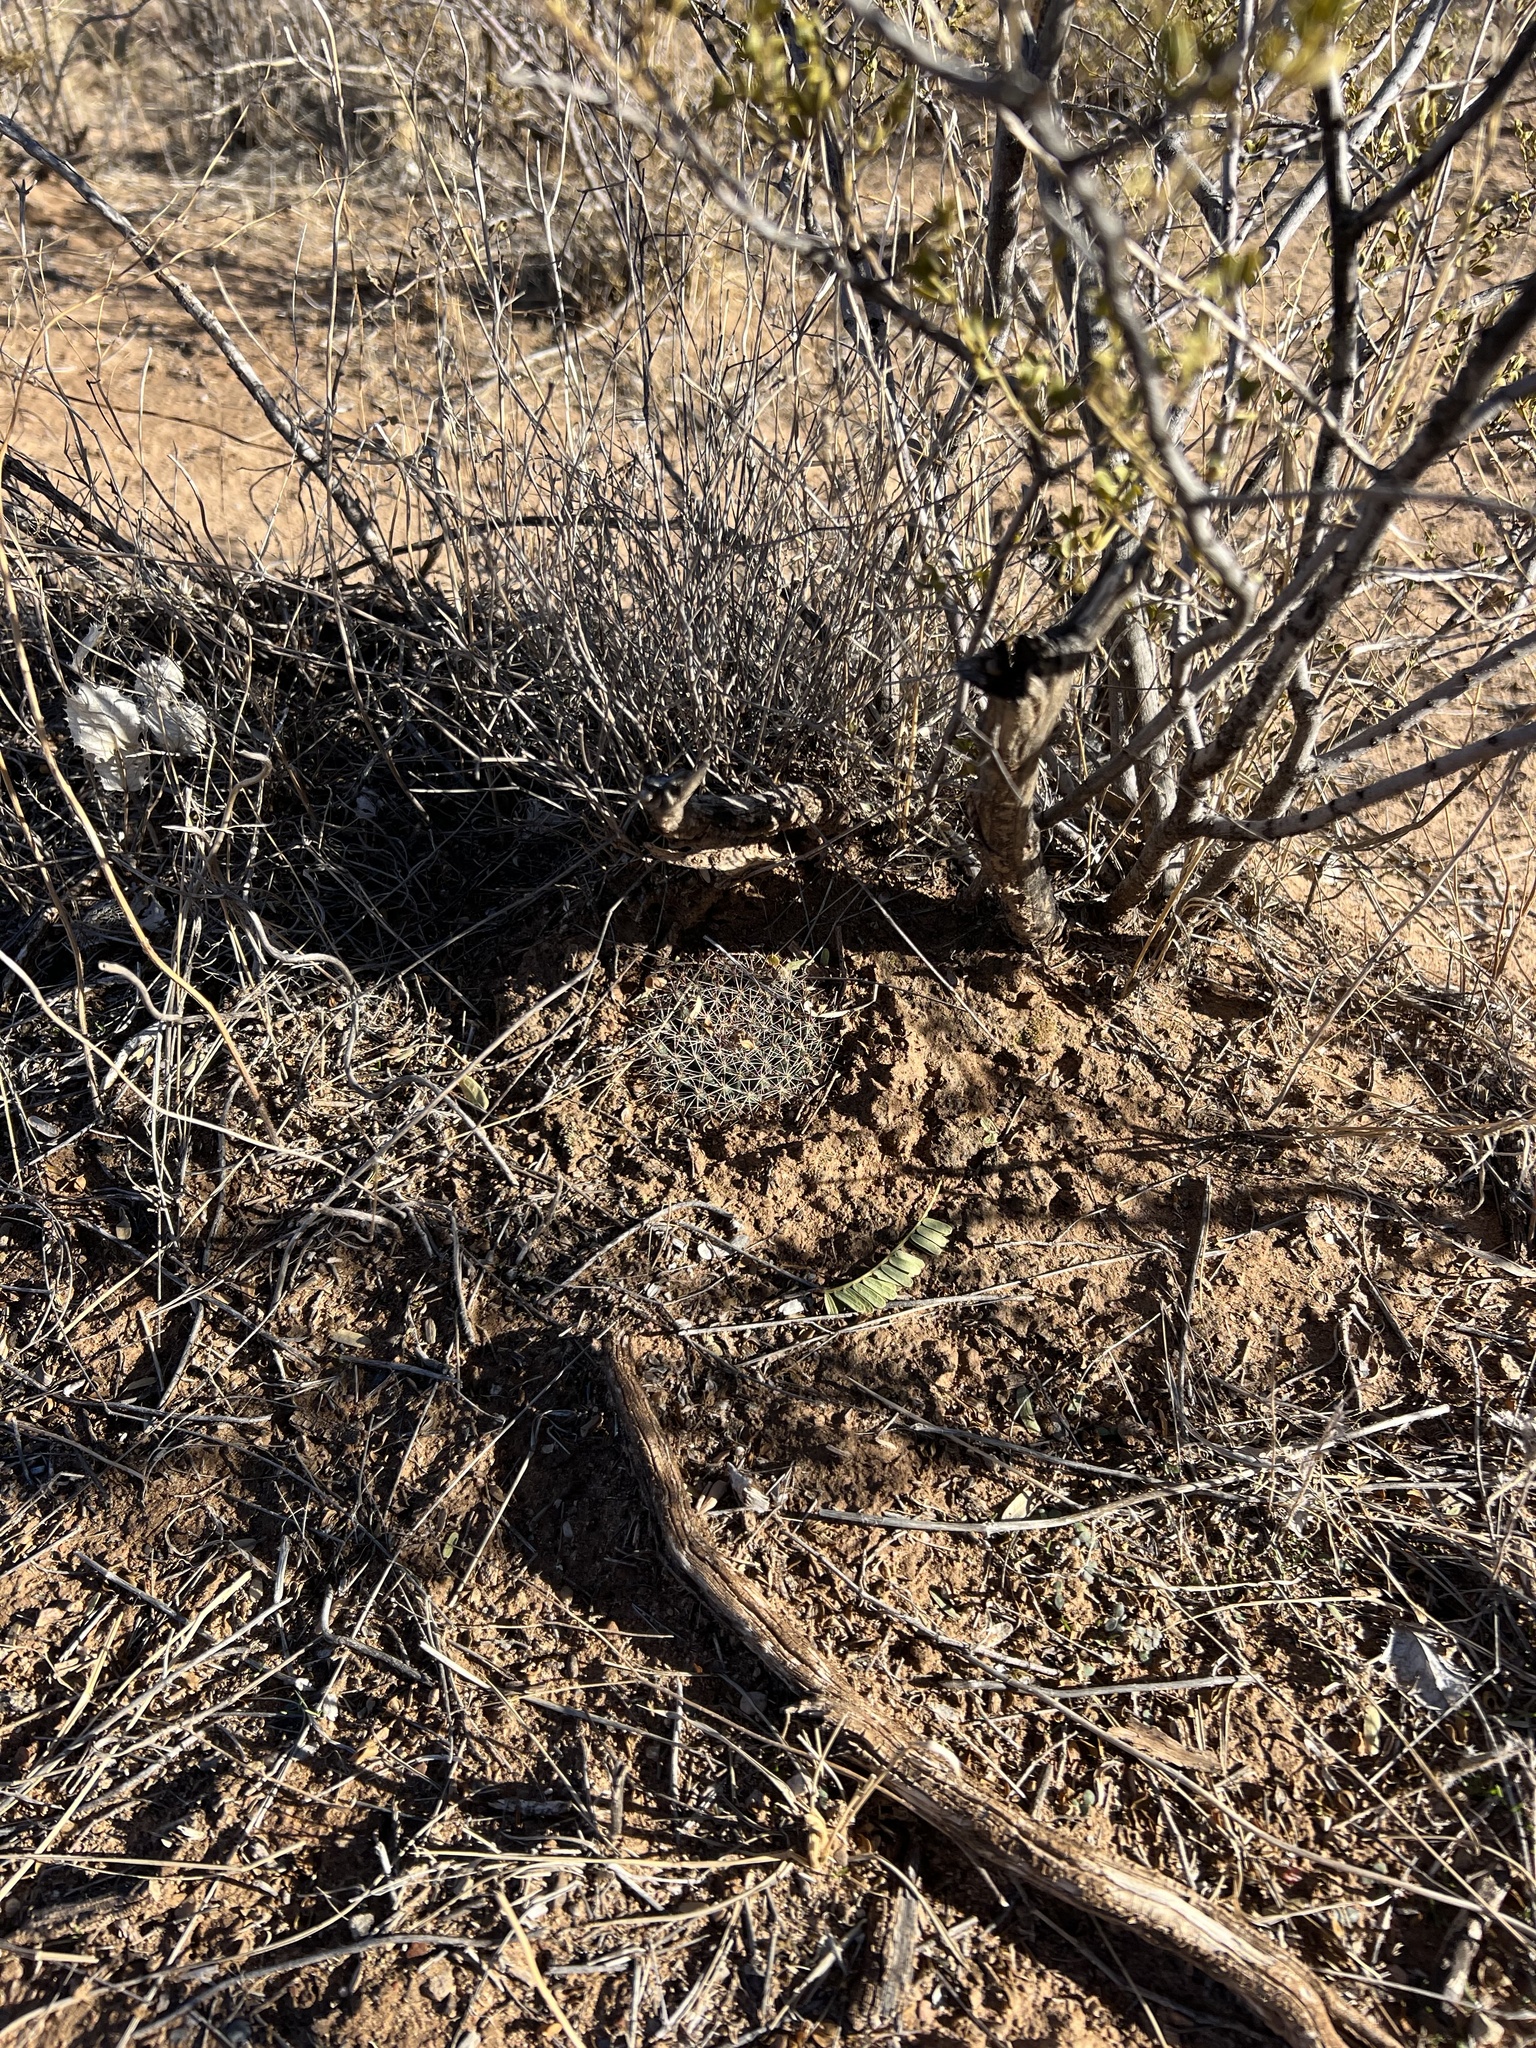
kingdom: Plantae
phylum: Tracheophyta
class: Magnoliopsida
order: Caryophyllales
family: Cactaceae
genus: Mammillaria
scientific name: Mammillaria heyderi
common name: Little nipple cactus
